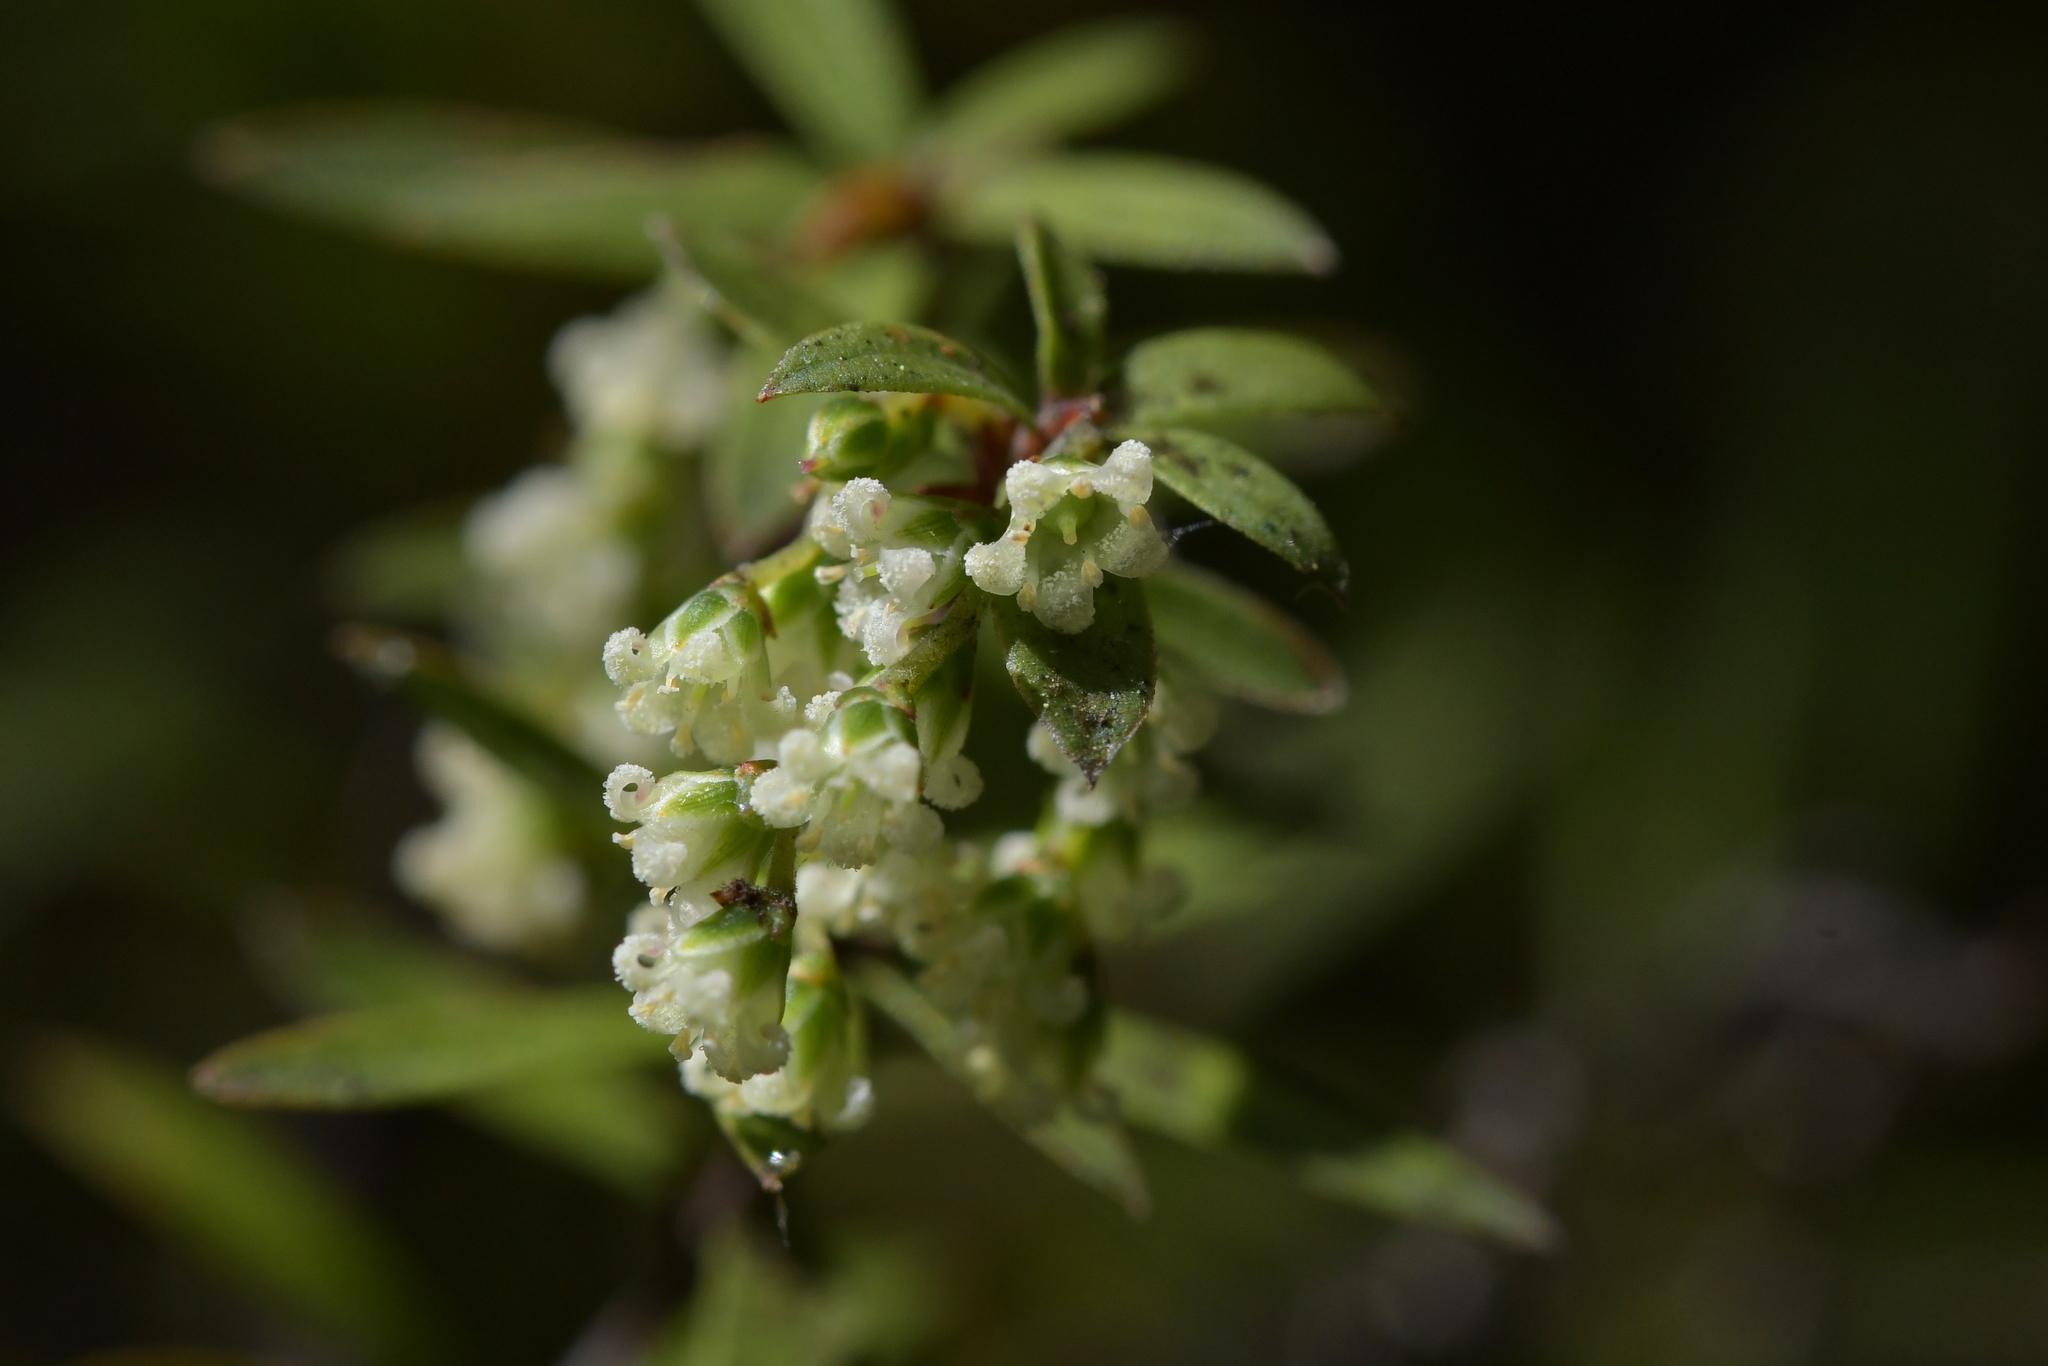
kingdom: Plantae
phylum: Tracheophyta
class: Magnoliopsida
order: Ericales
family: Ericaceae
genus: Leucopogon
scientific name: Leucopogon fasciculatus
